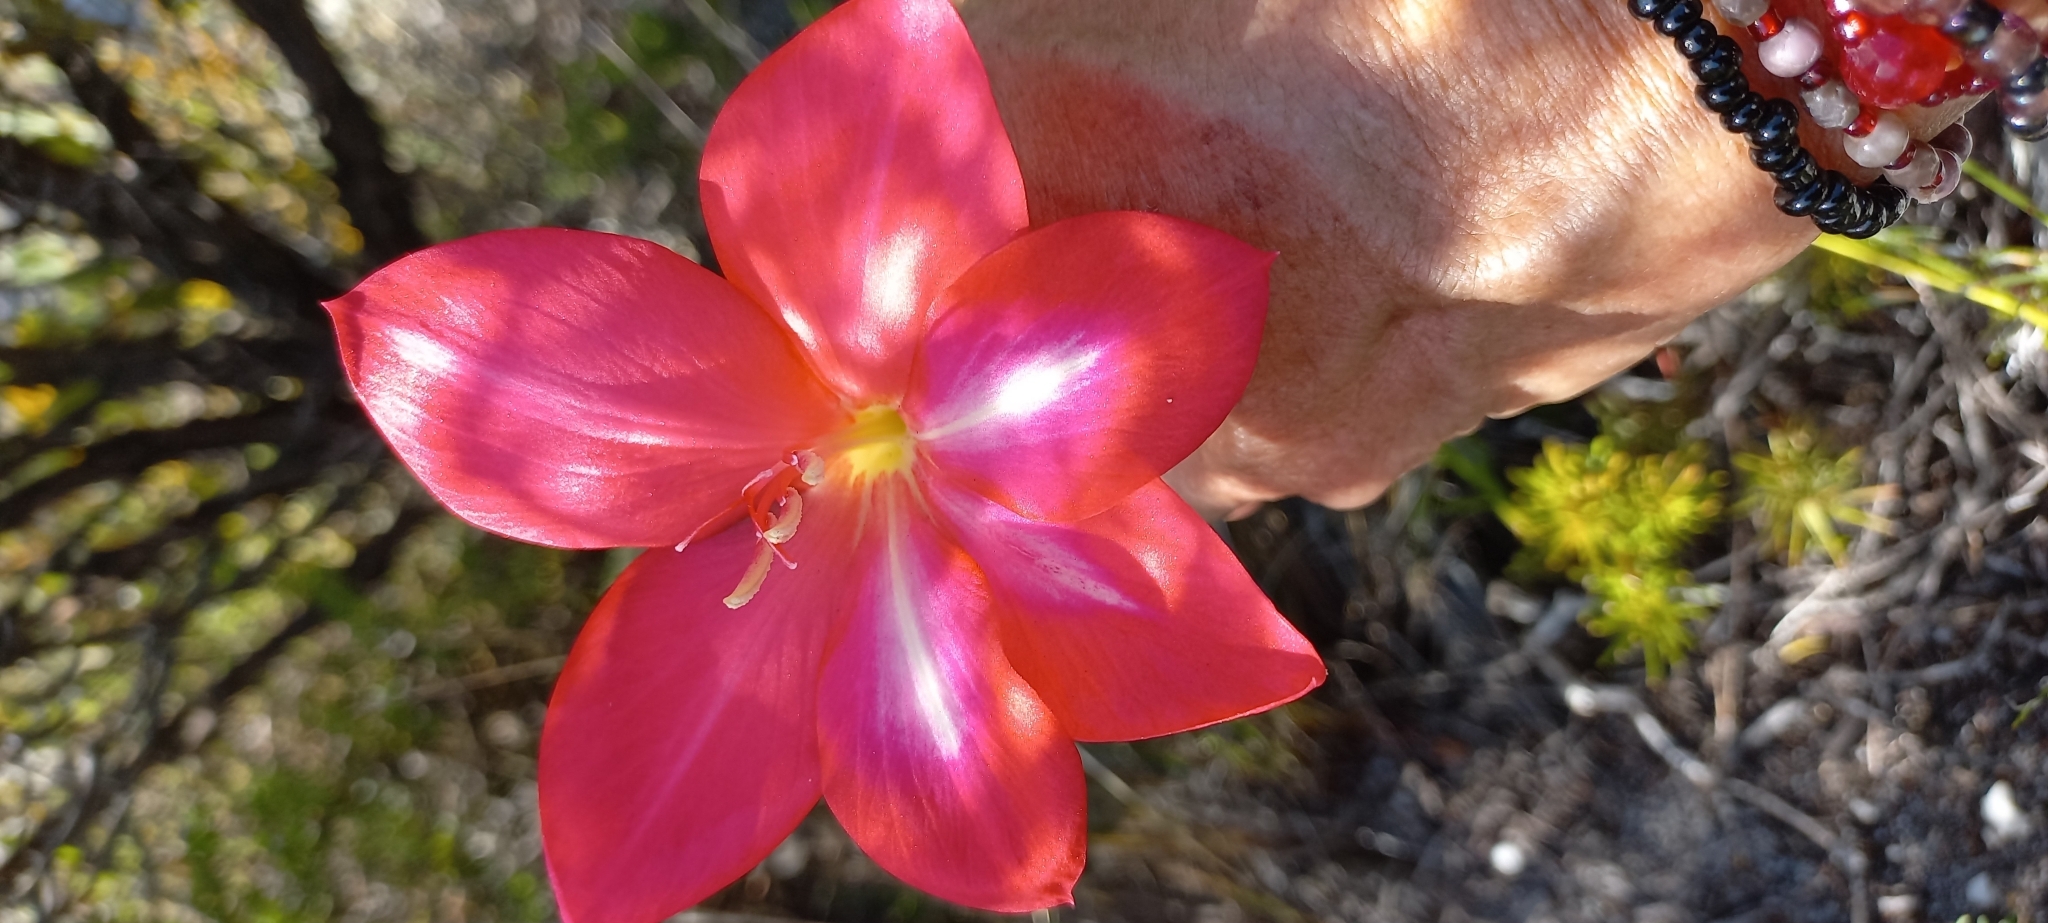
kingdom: Plantae
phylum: Tracheophyta
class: Liliopsida
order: Asparagales
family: Iridaceae
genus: Gladiolus
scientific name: Gladiolus carmineus
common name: Hermanus gladiolus
